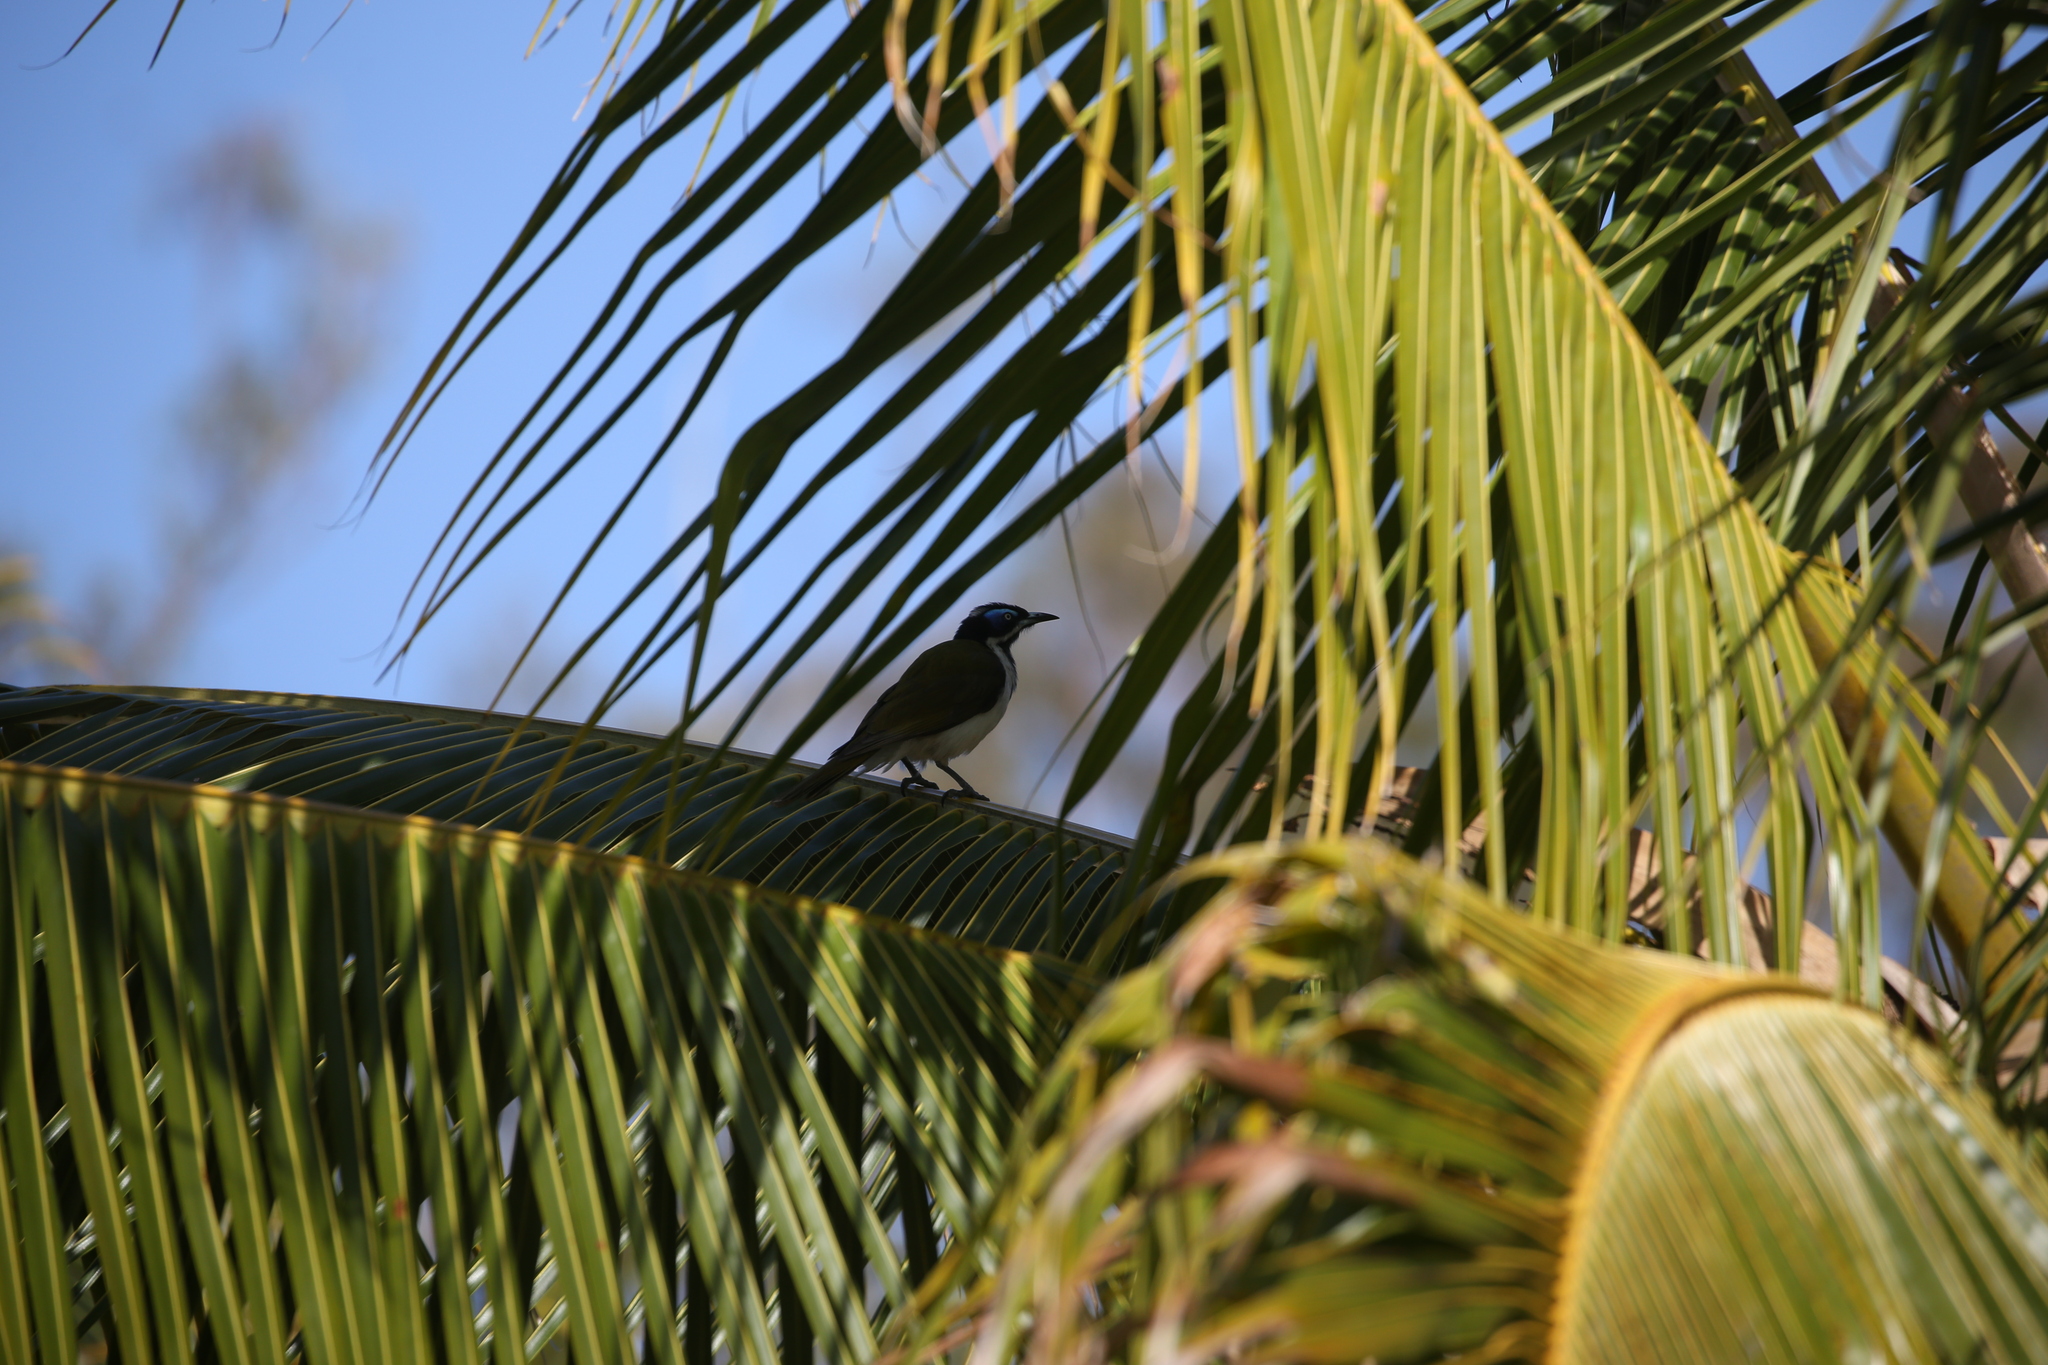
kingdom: Animalia
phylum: Chordata
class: Aves
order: Passeriformes
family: Meliphagidae
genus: Entomyzon
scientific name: Entomyzon cyanotis
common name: Blue-faced honeyeater
